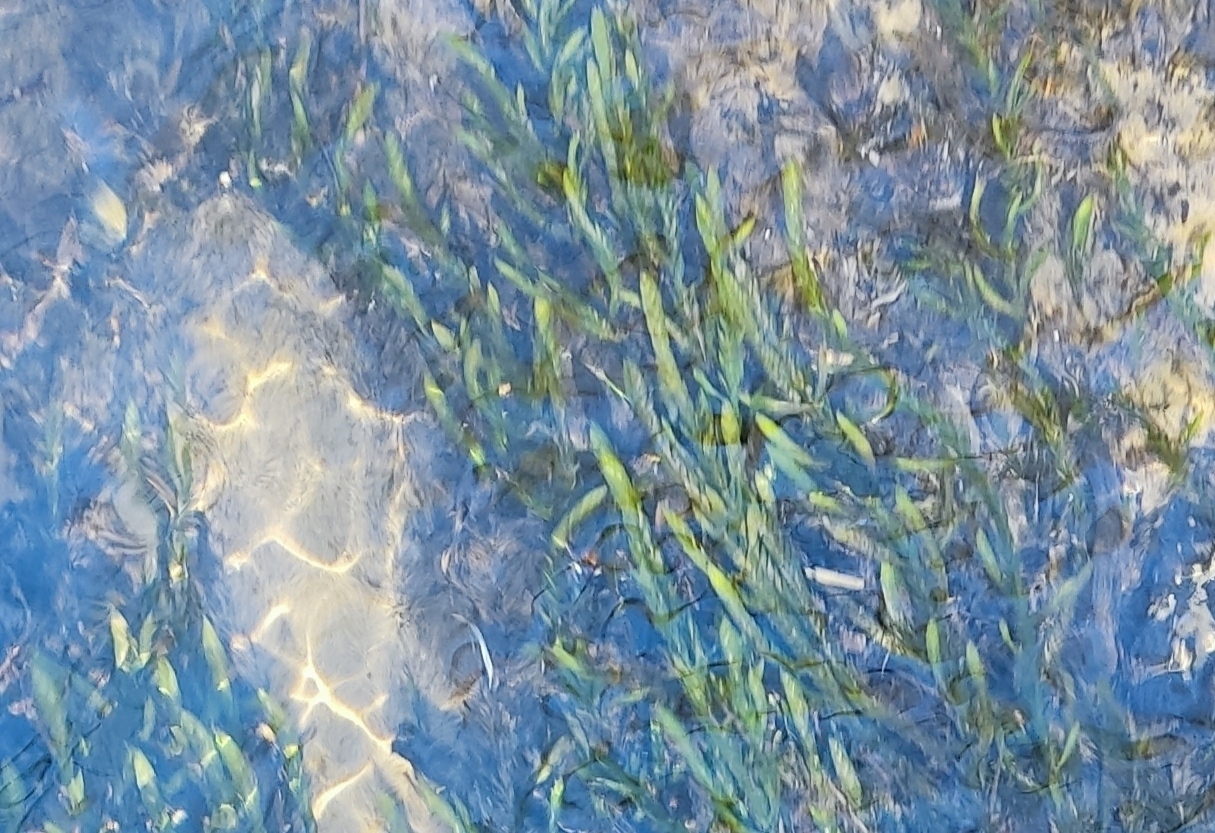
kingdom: Plantae
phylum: Bryophyta
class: Bryopsida
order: Hypnales
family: Fontinalaceae
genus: Fontinalis
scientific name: Fontinalis antipyretica
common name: Greater water-moss
